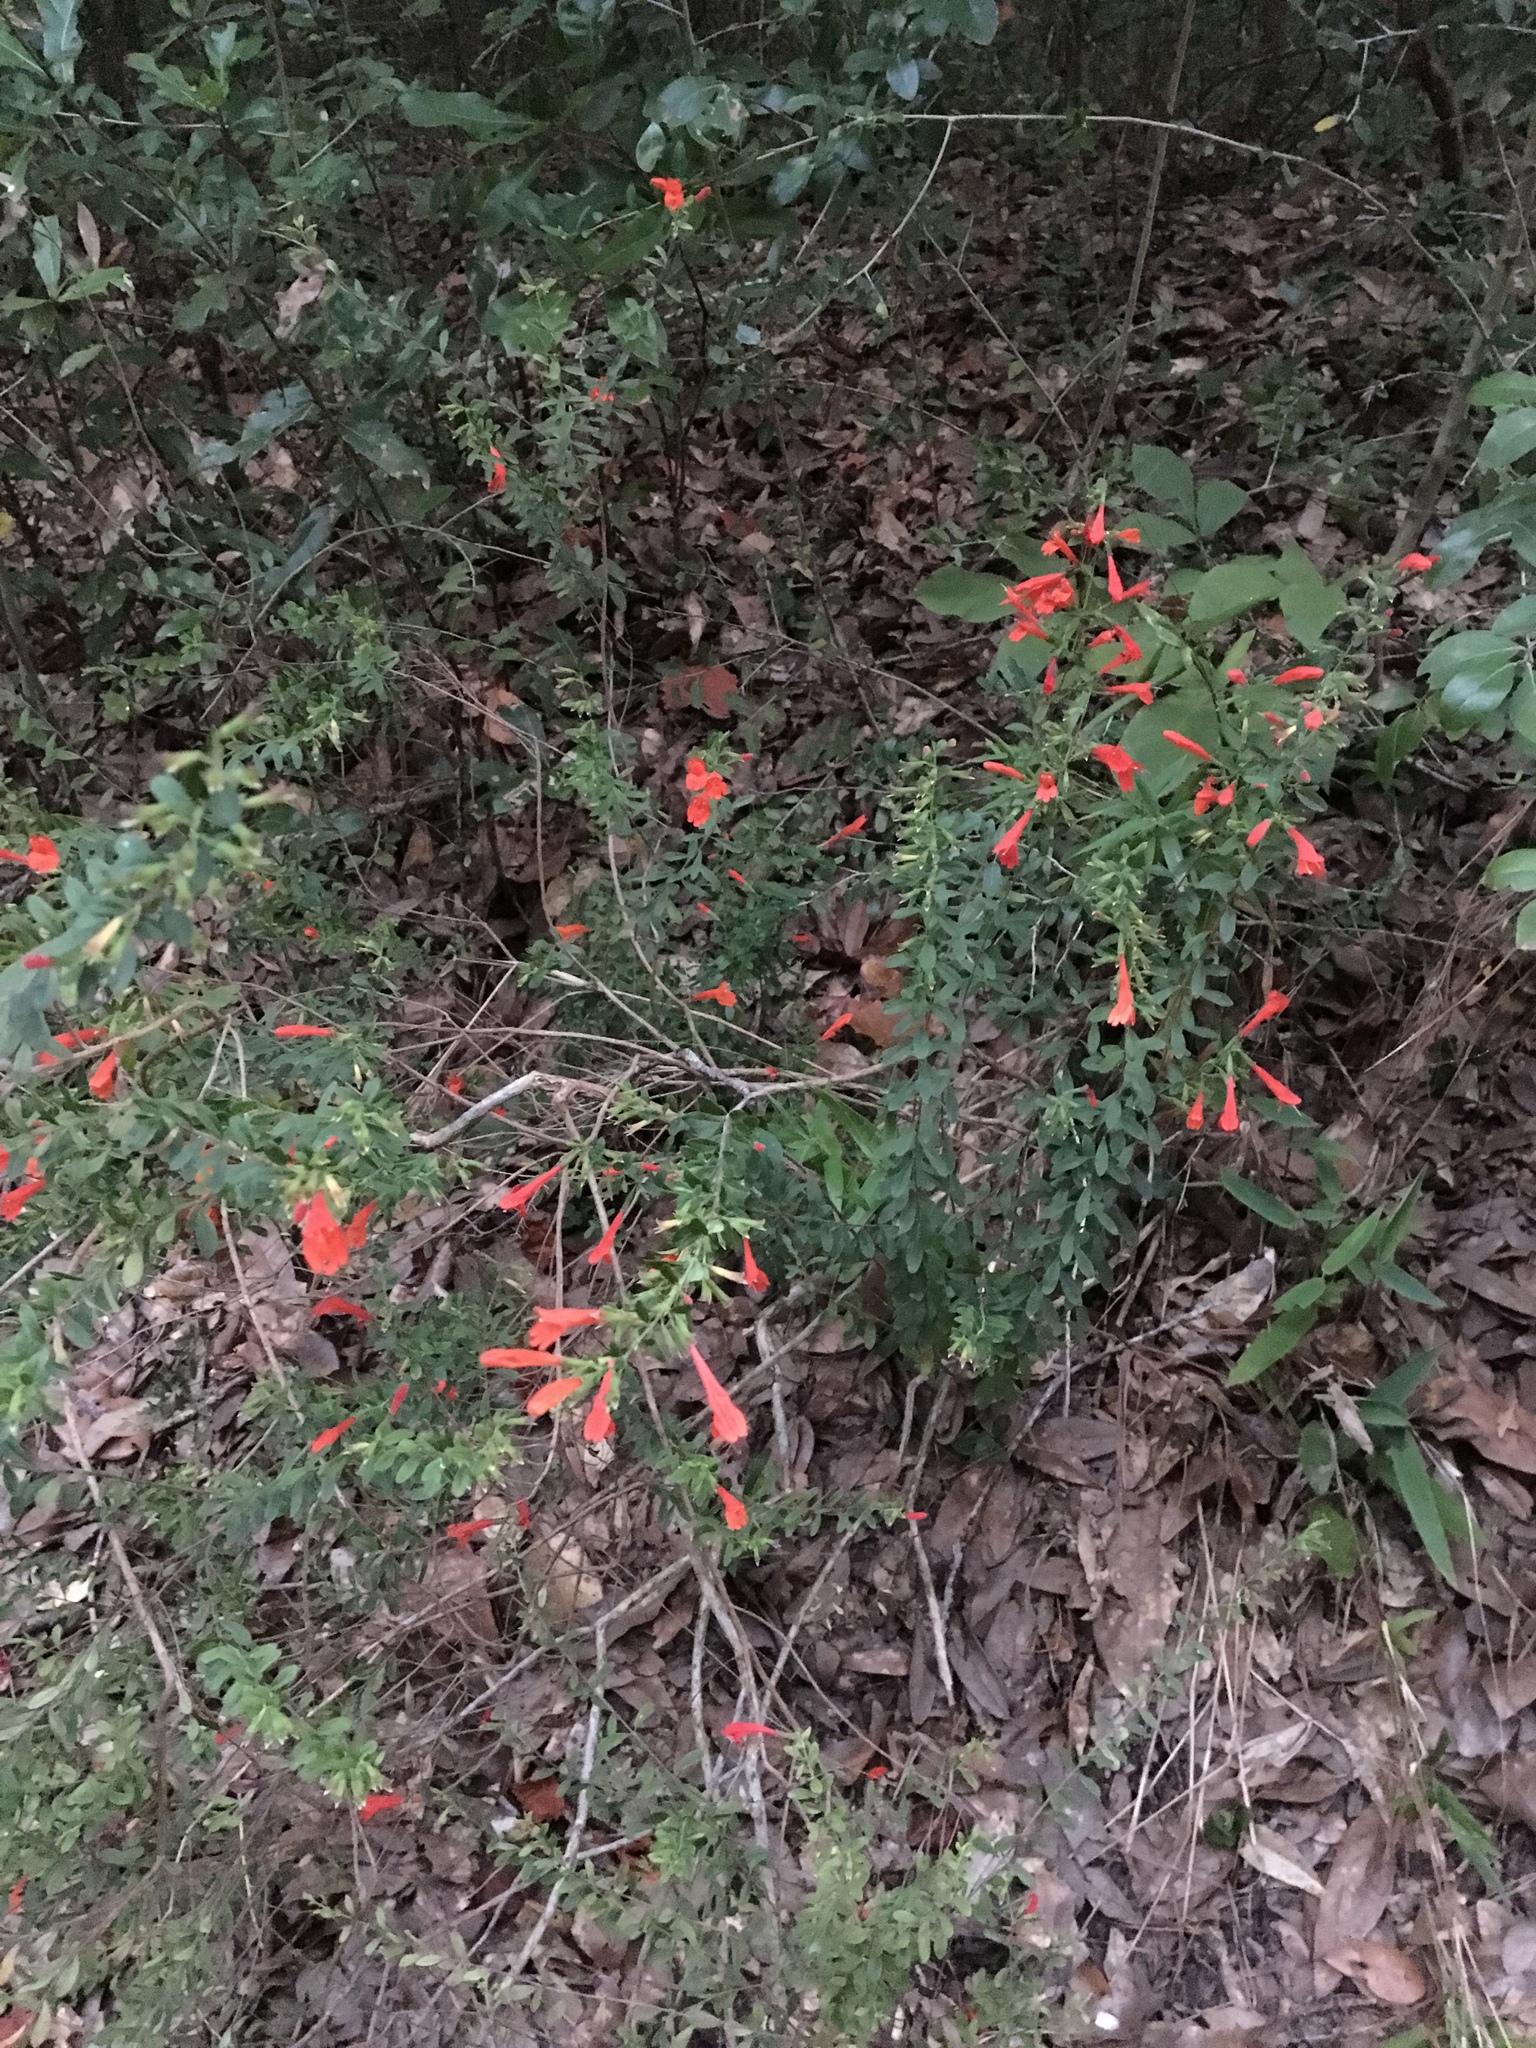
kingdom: Plantae
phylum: Tracheophyta
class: Magnoliopsida
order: Lamiales
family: Lamiaceae
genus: Clinopodium
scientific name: Clinopodium coccineum
